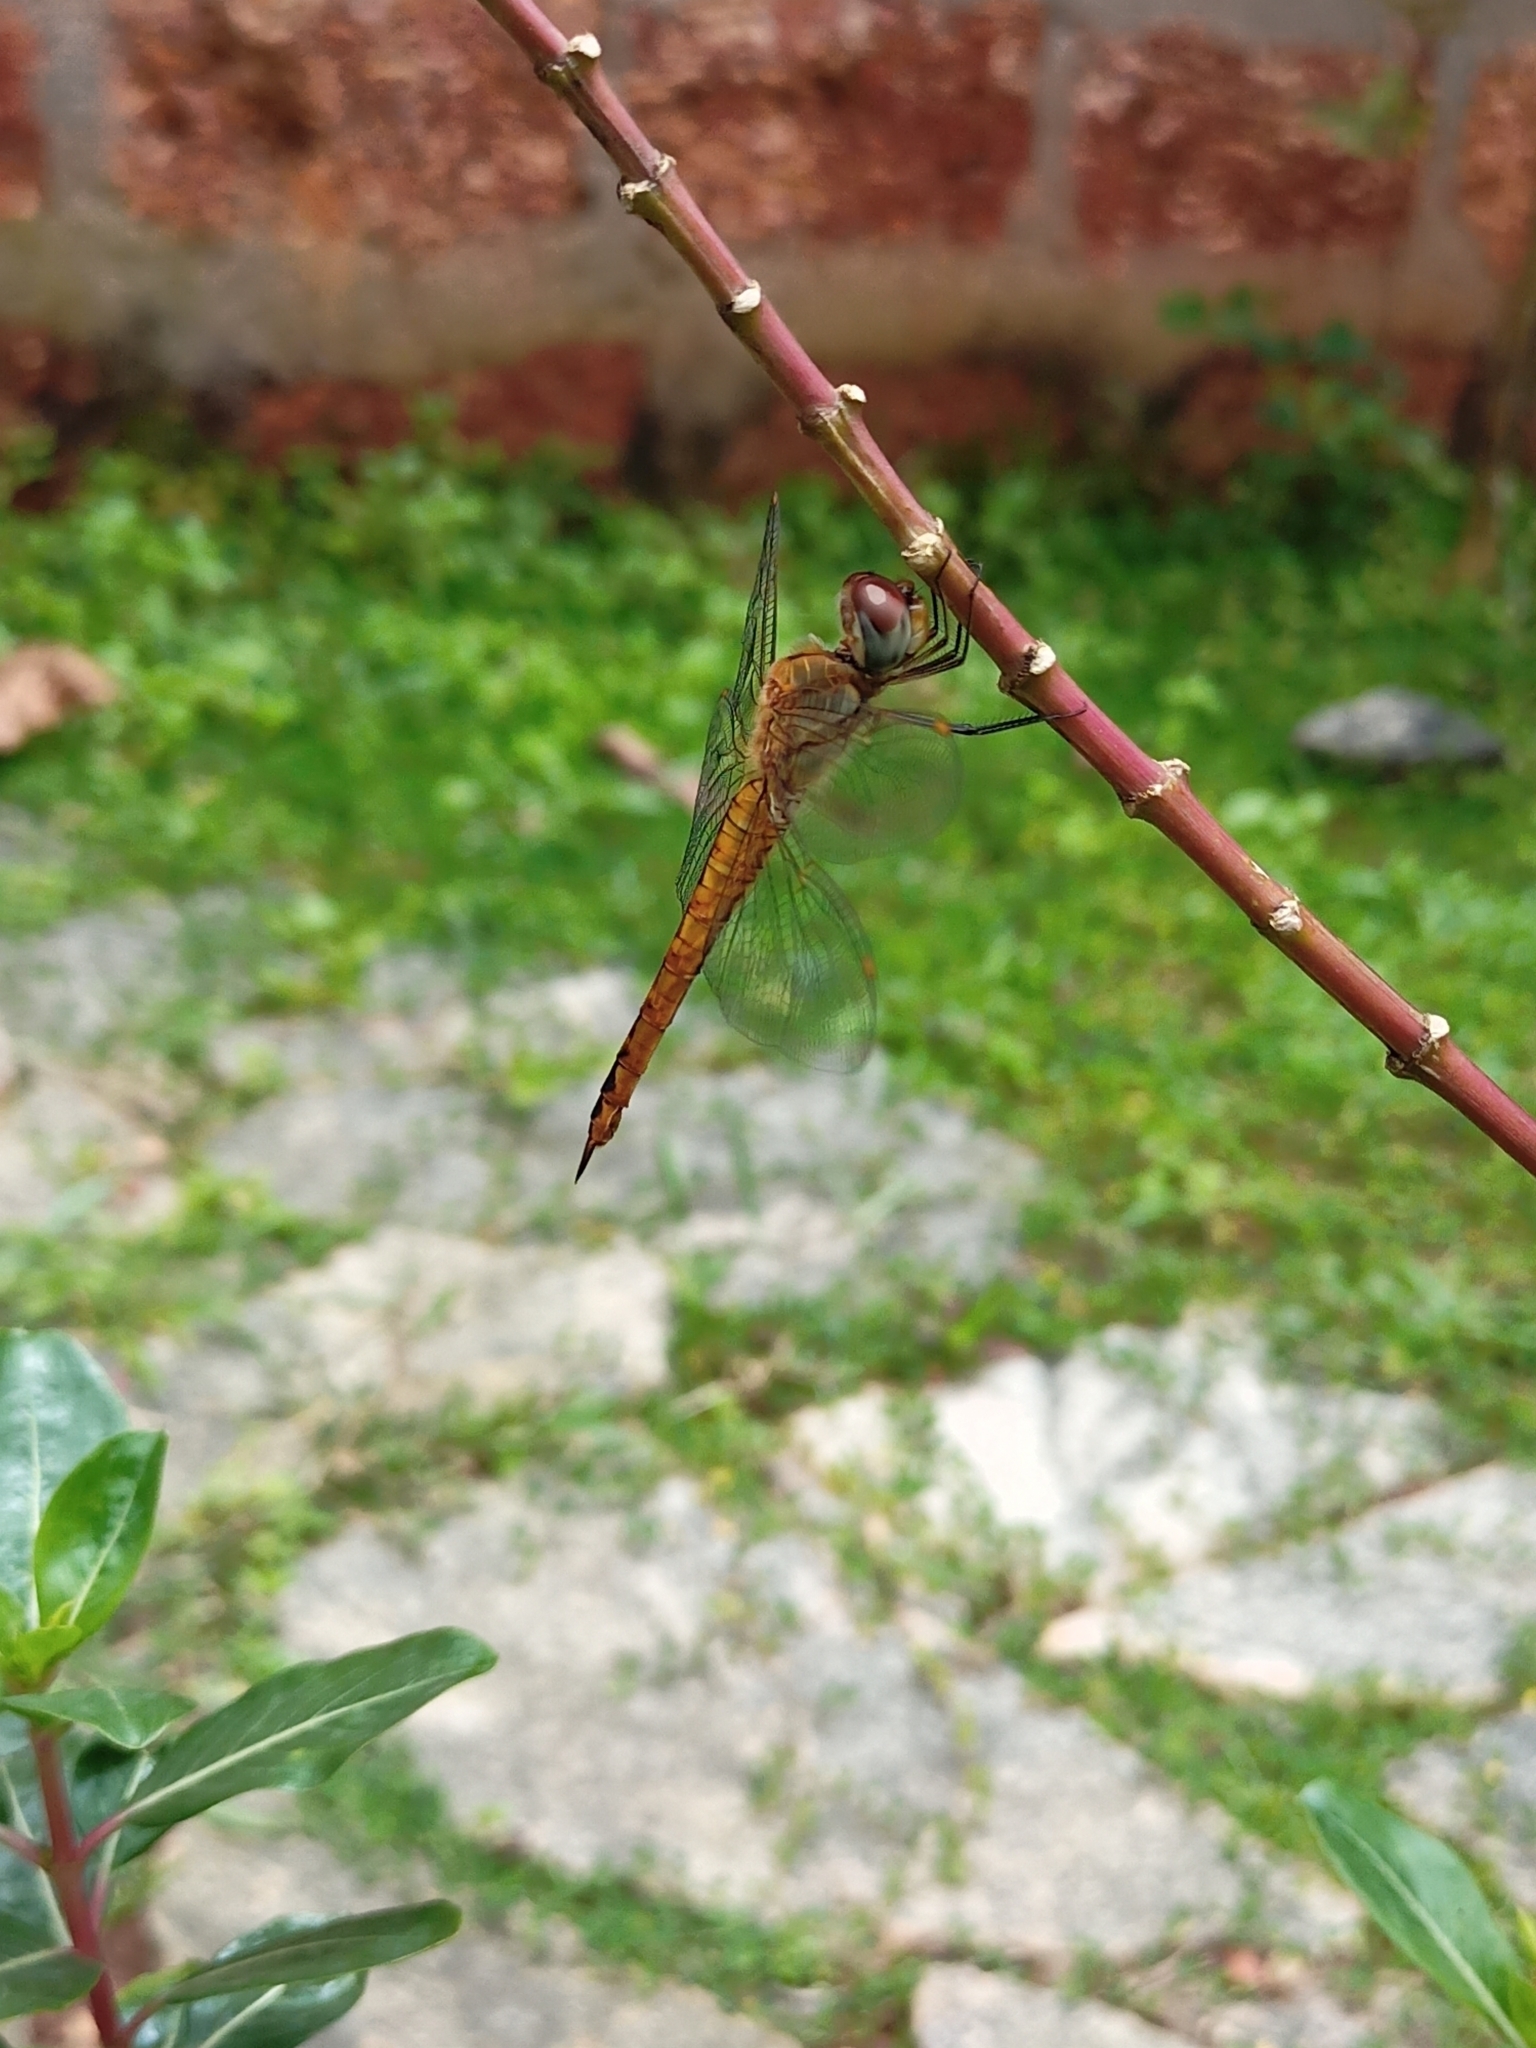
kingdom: Animalia
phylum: Arthropoda
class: Insecta
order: Odonata
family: Libellulidae
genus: Pantala
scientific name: Pantala flavescens
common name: Wandering glider
